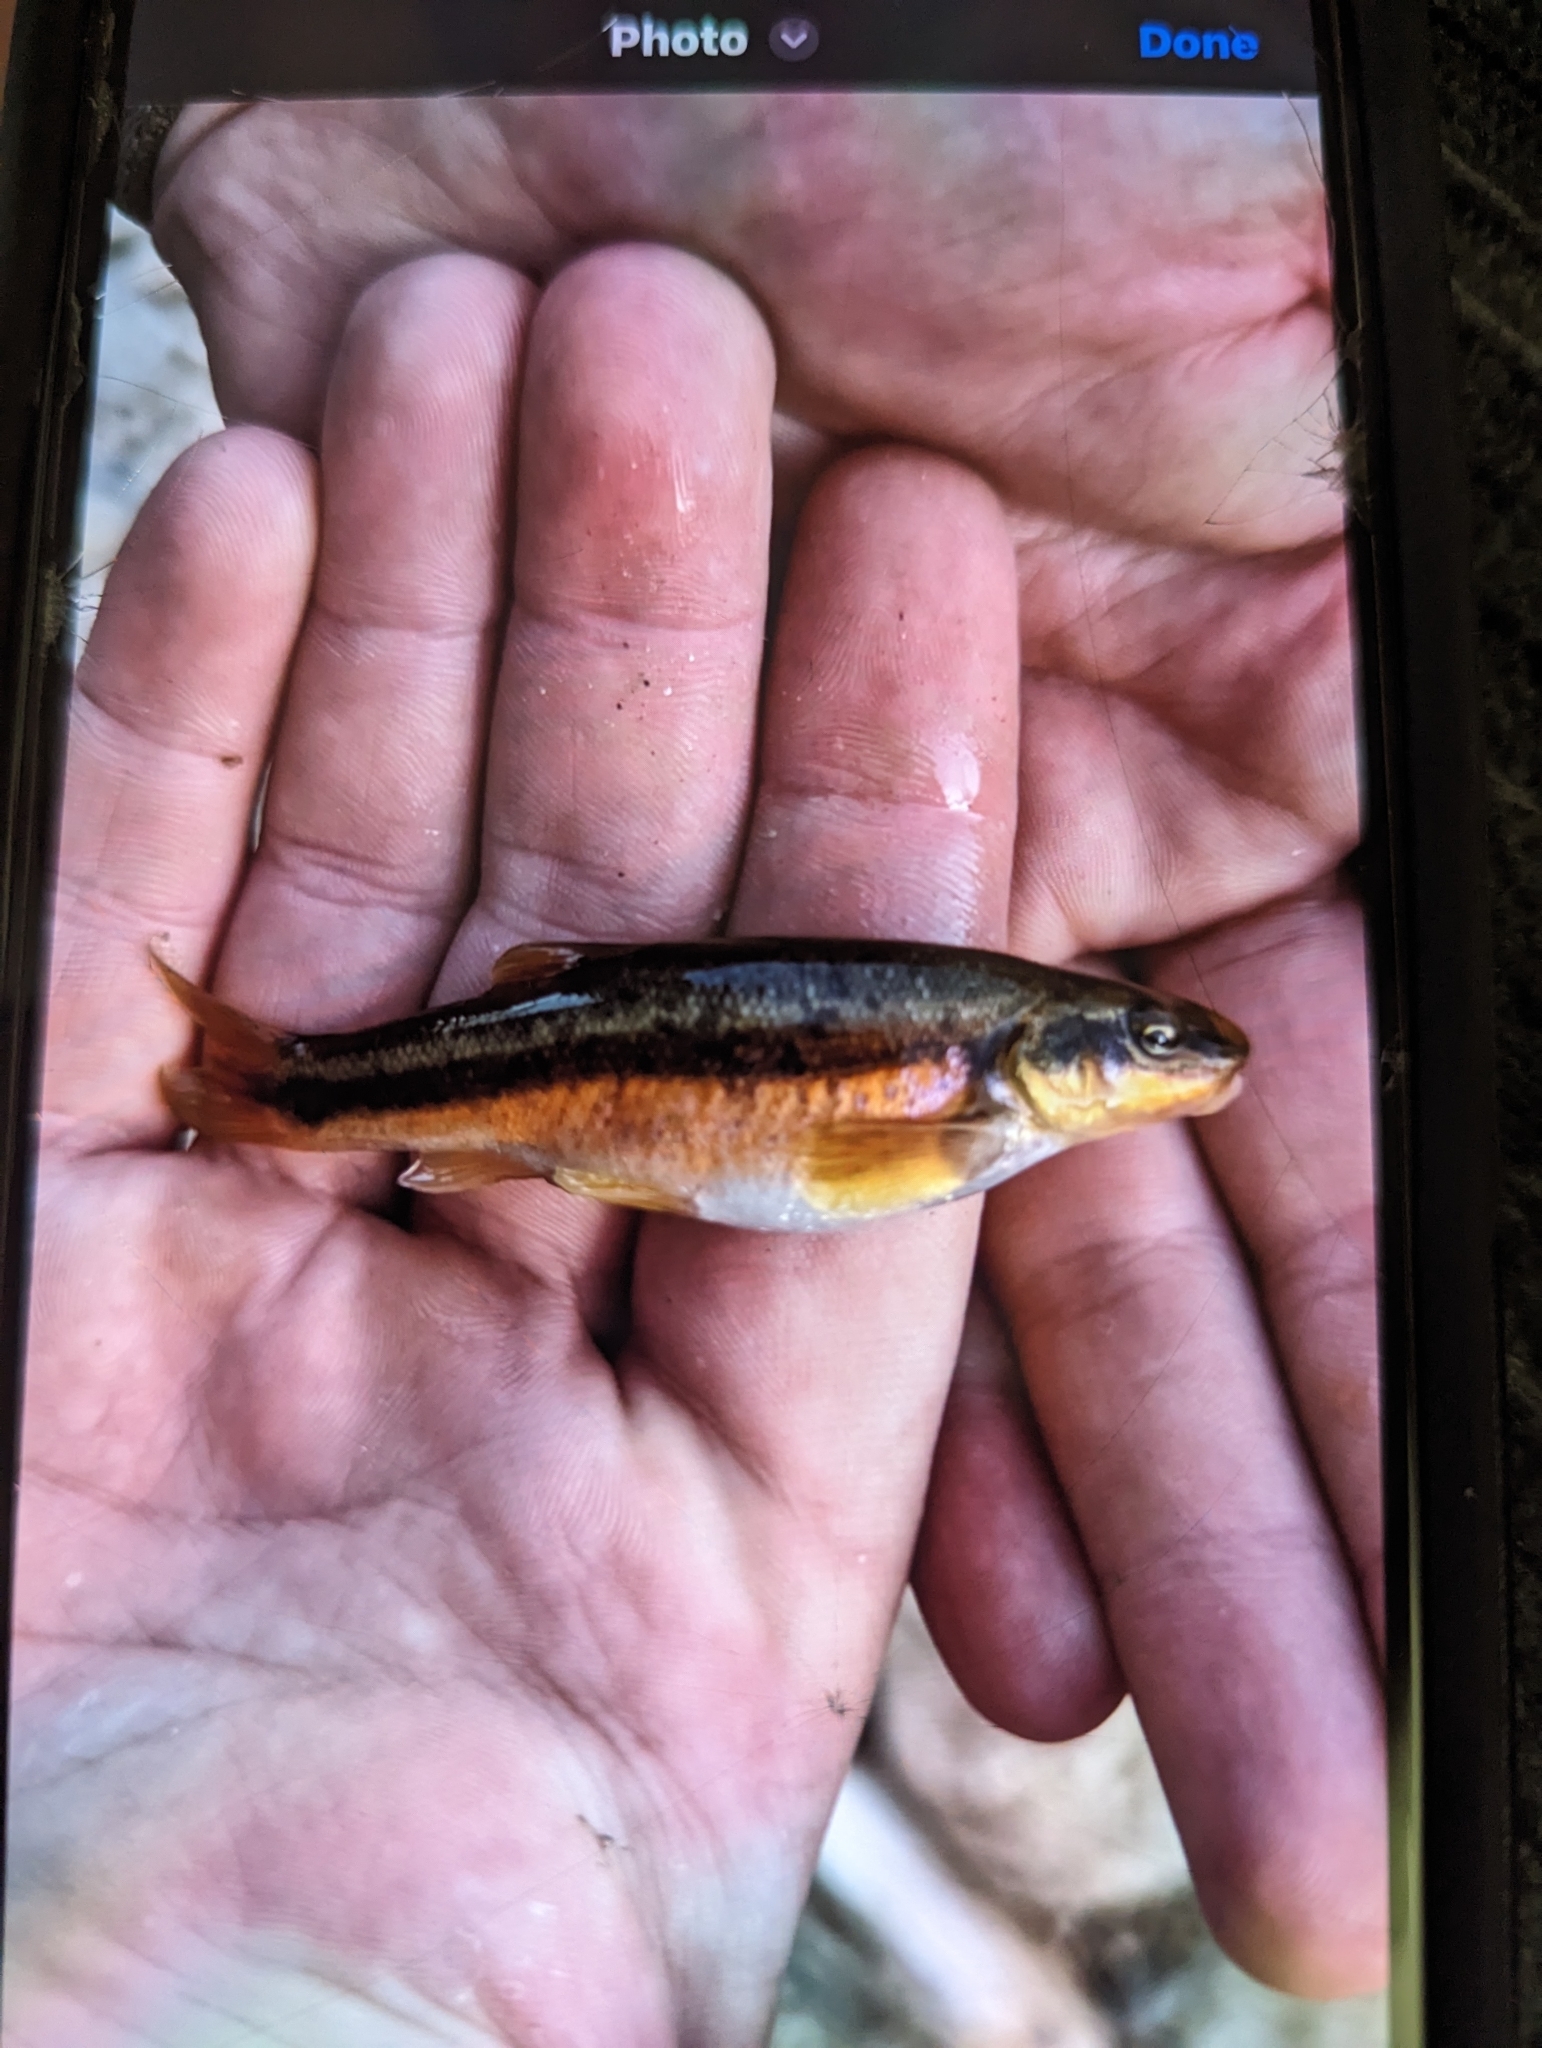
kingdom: Animalia
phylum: Chordata
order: Cypriniformes
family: Cyprinidae
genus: Rhinichthys
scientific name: Rhinichthys obtusus
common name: Western blacknose dace
